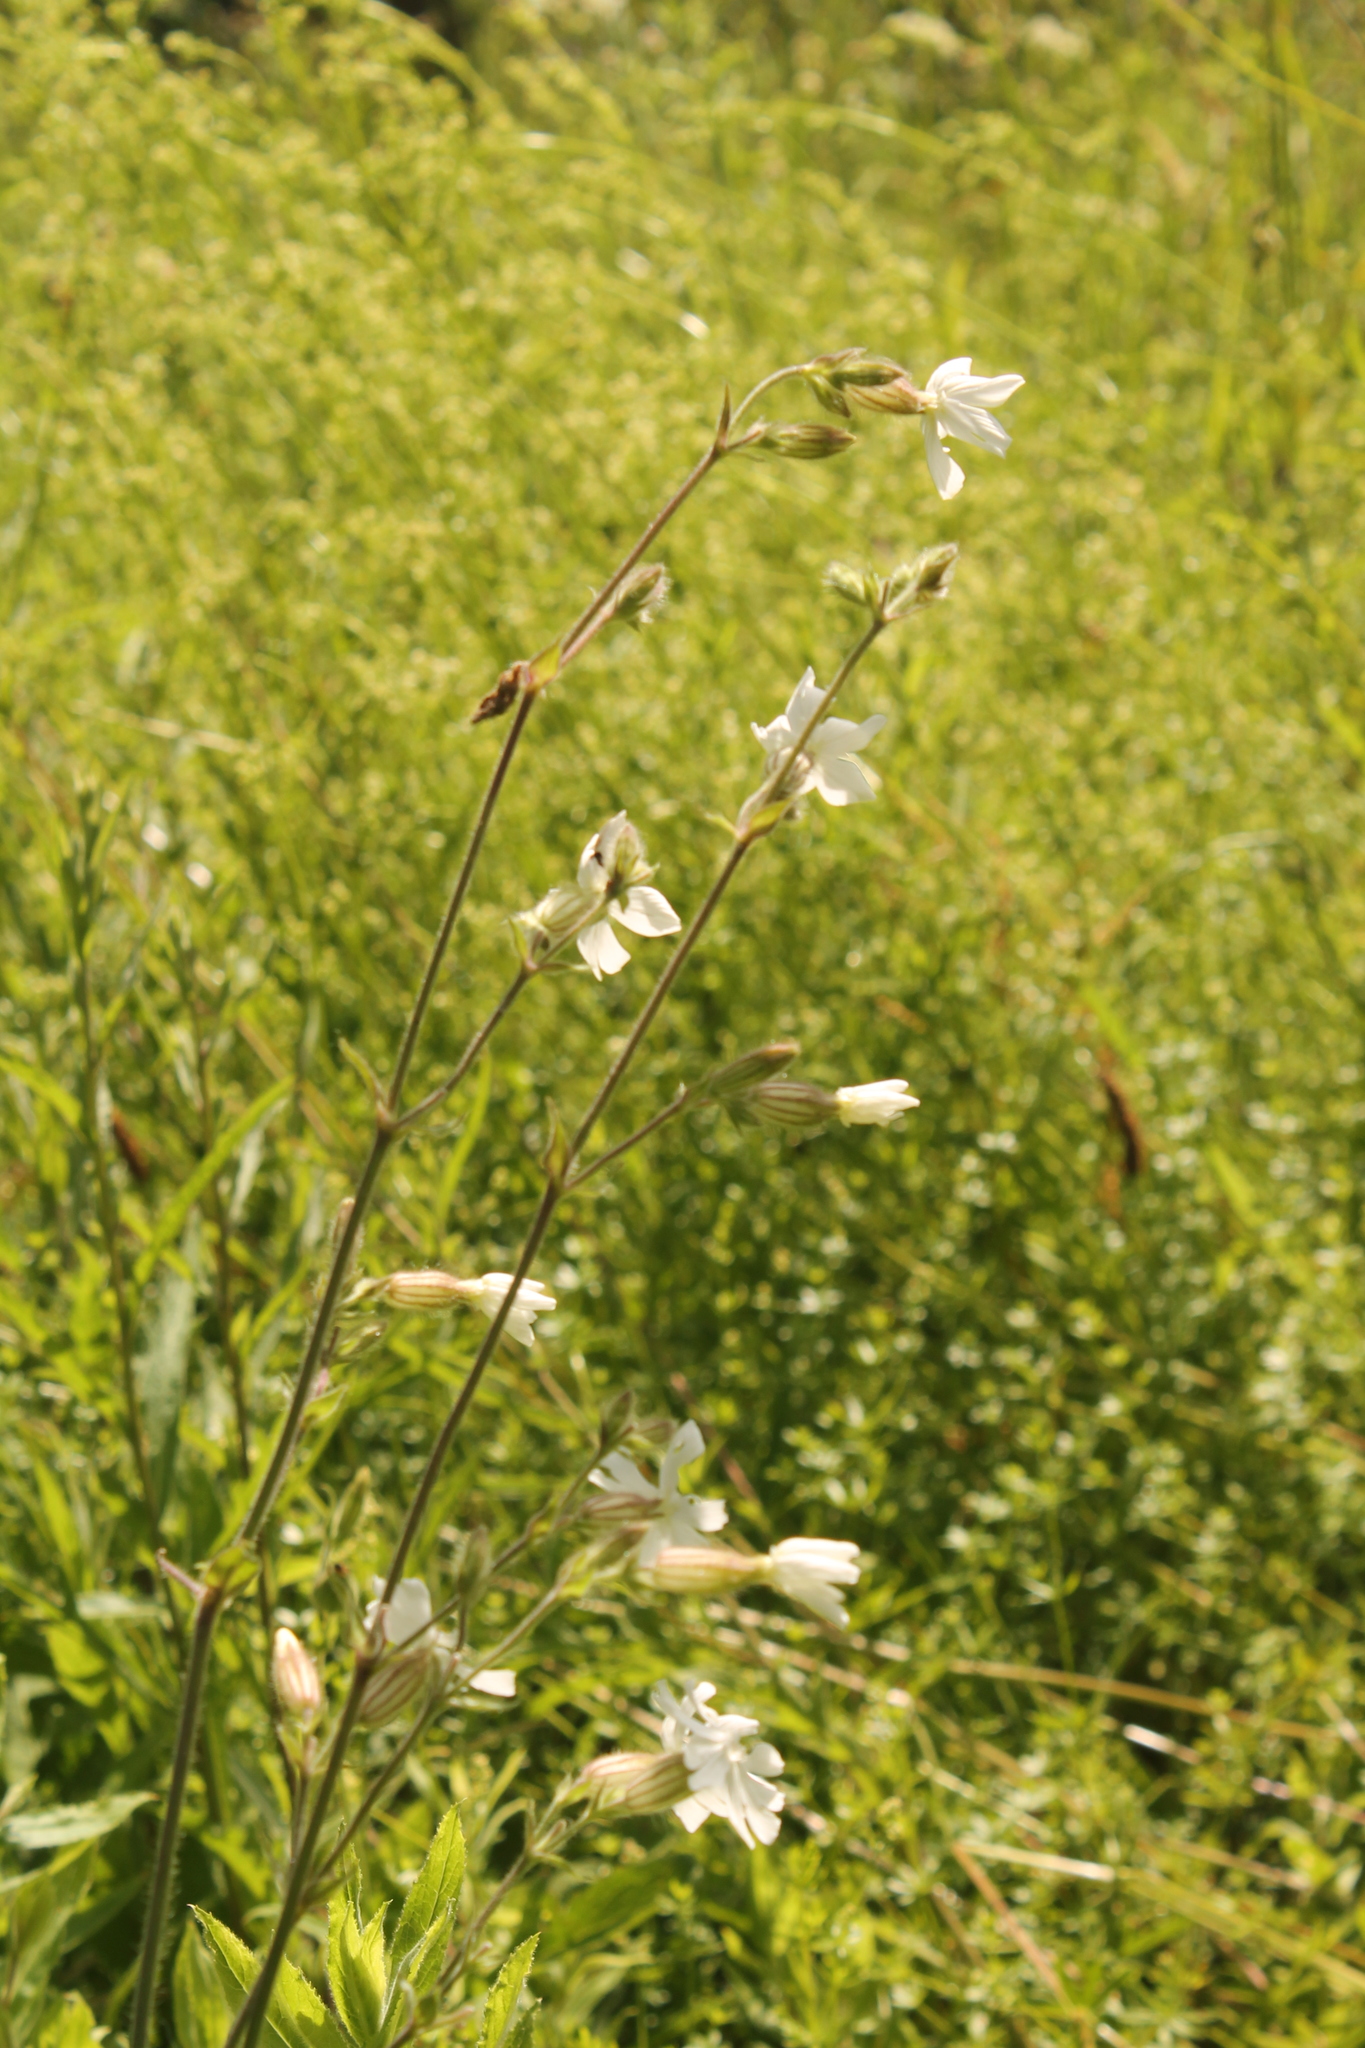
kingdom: Plantae
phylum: Tracheophyta
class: Magnoliopsida
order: Caryophyllales
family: Caryophyllaceae
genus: Silene
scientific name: Silene latifolia
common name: White campion
